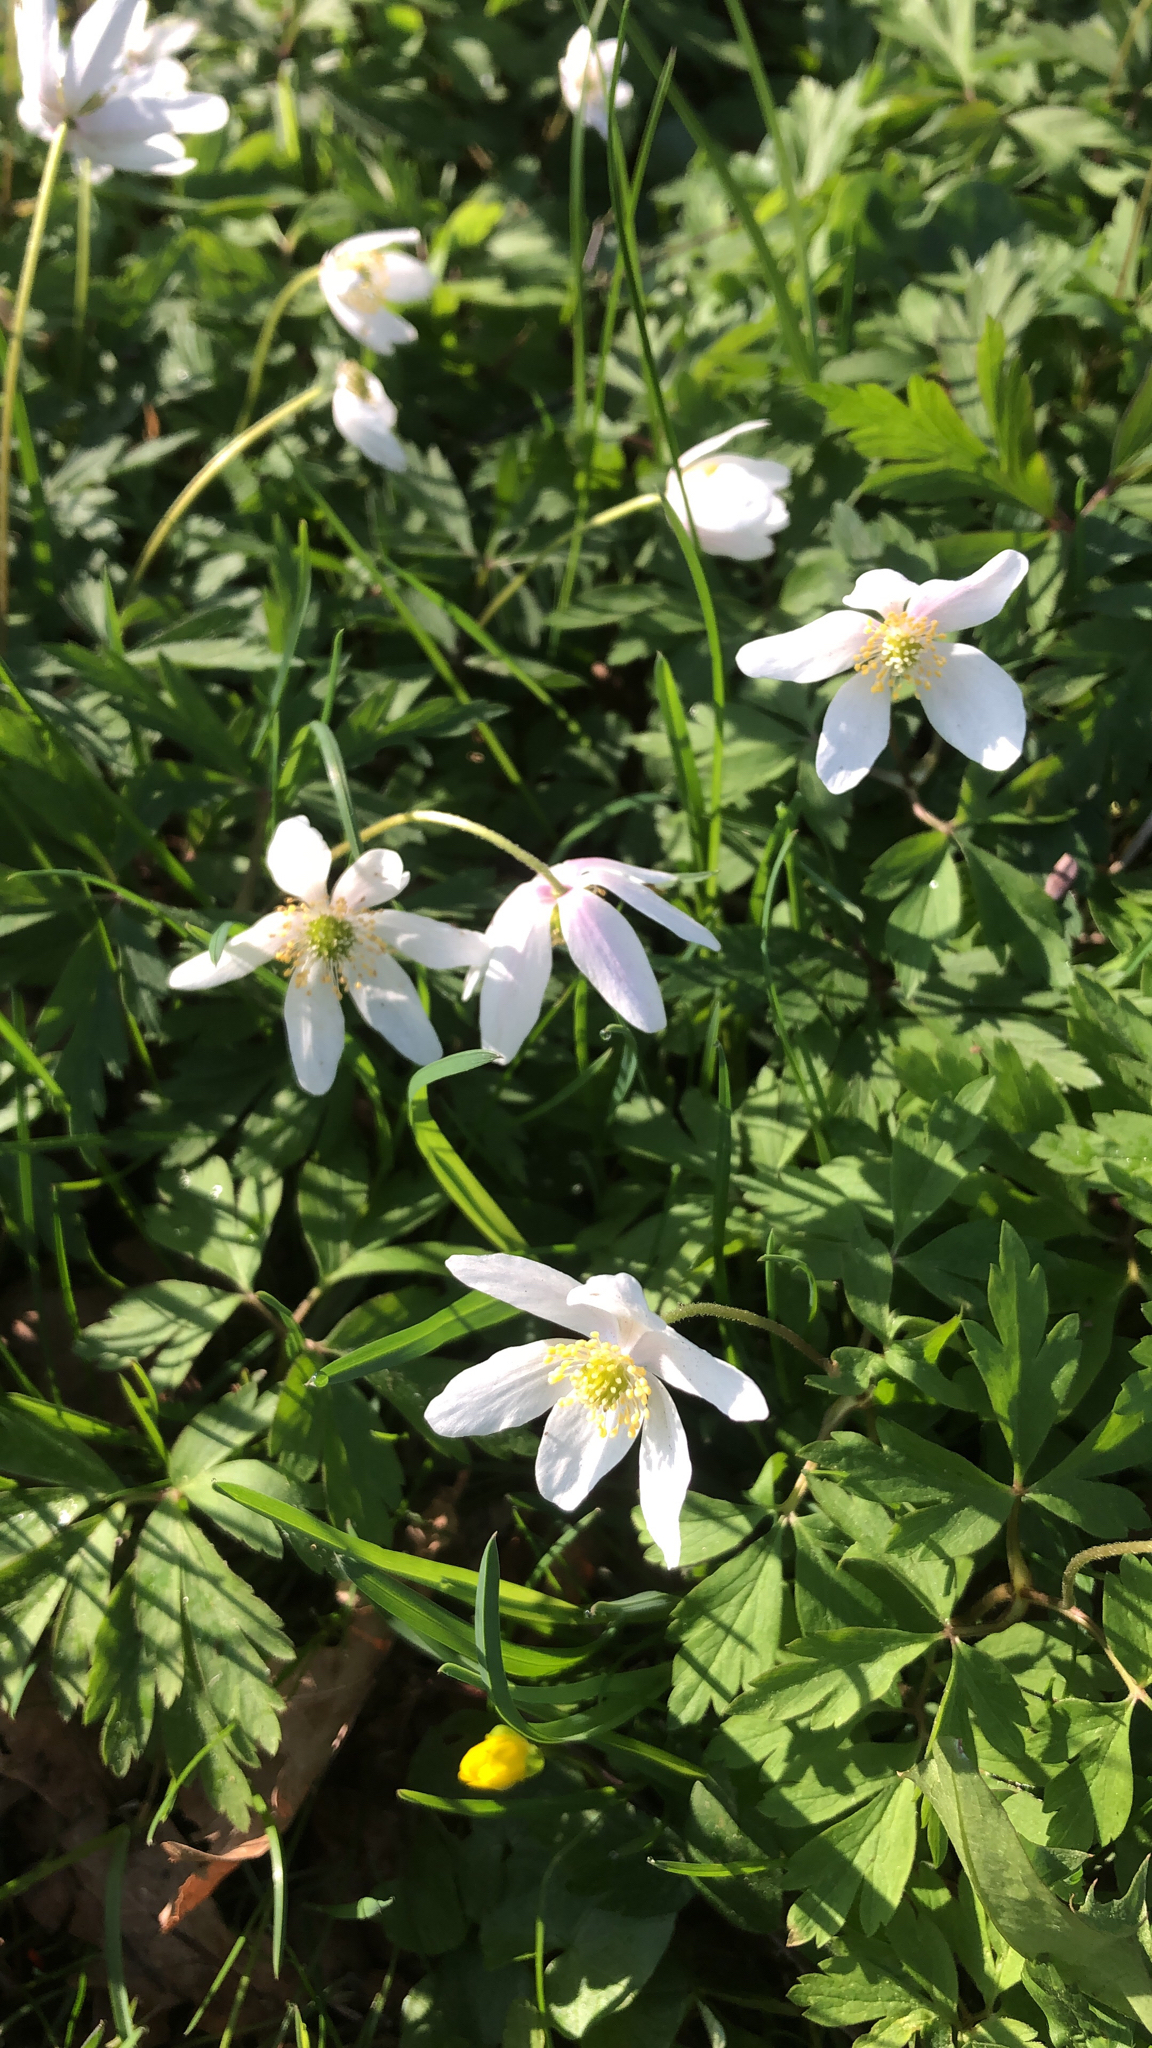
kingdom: Plantae
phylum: Tracheophyta
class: Magnoliopsida
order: Ranunculales
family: Ranunculaceae
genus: Anemone
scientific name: Anemone nemorosa
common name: Wood anemone
